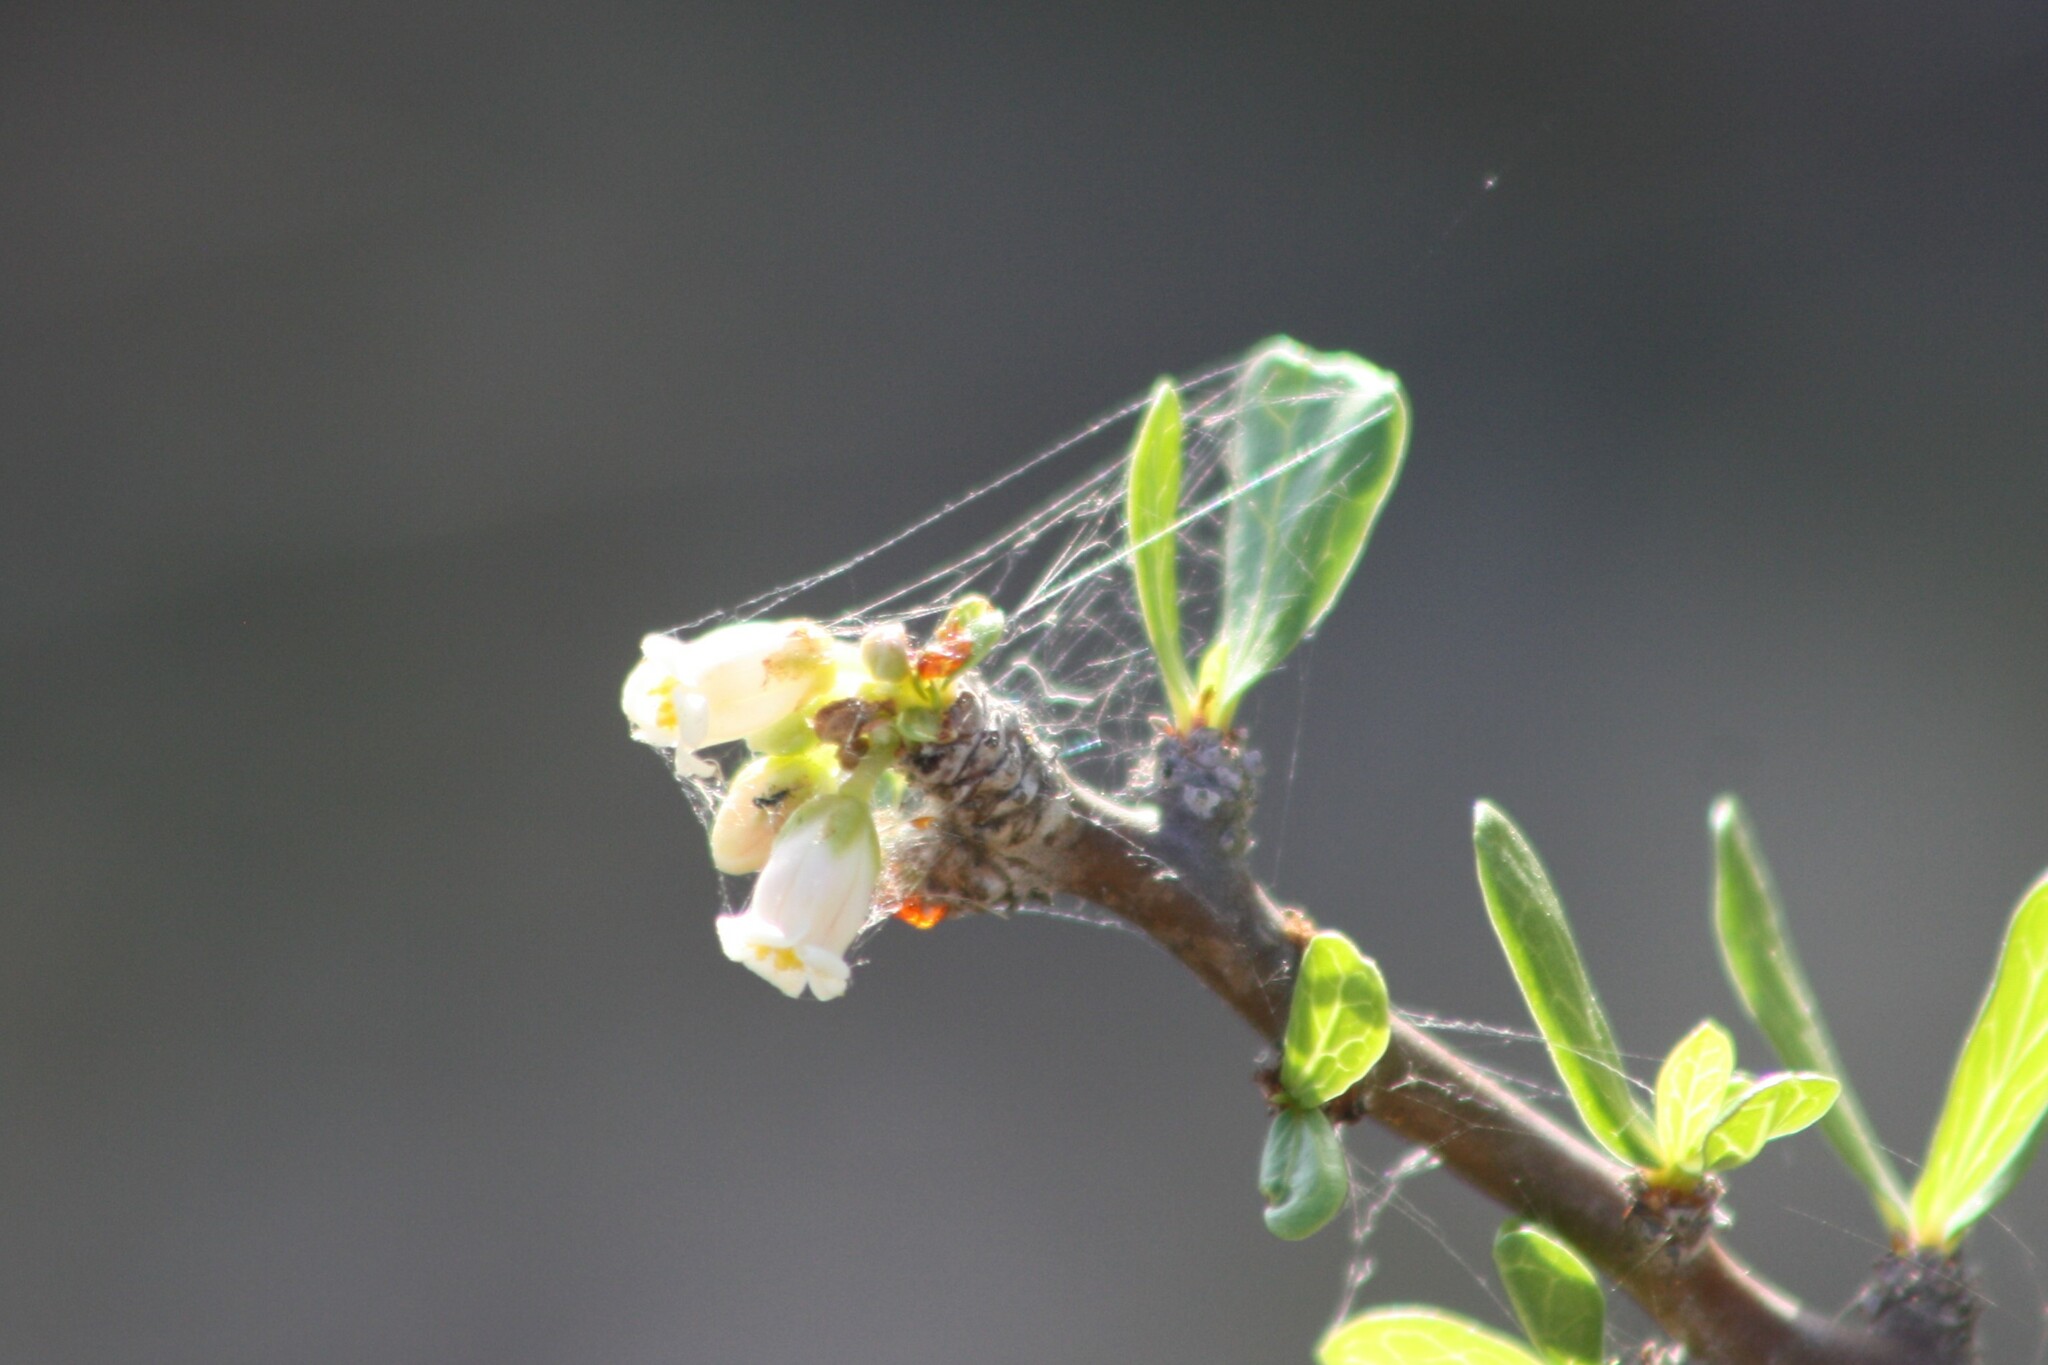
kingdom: Plantae
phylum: Tracheophyta
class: Magnoliopsida
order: Malpighiales
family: Euphorbiaceae
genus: Jatropha
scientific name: Jatropha dioica
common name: Leatherstem
